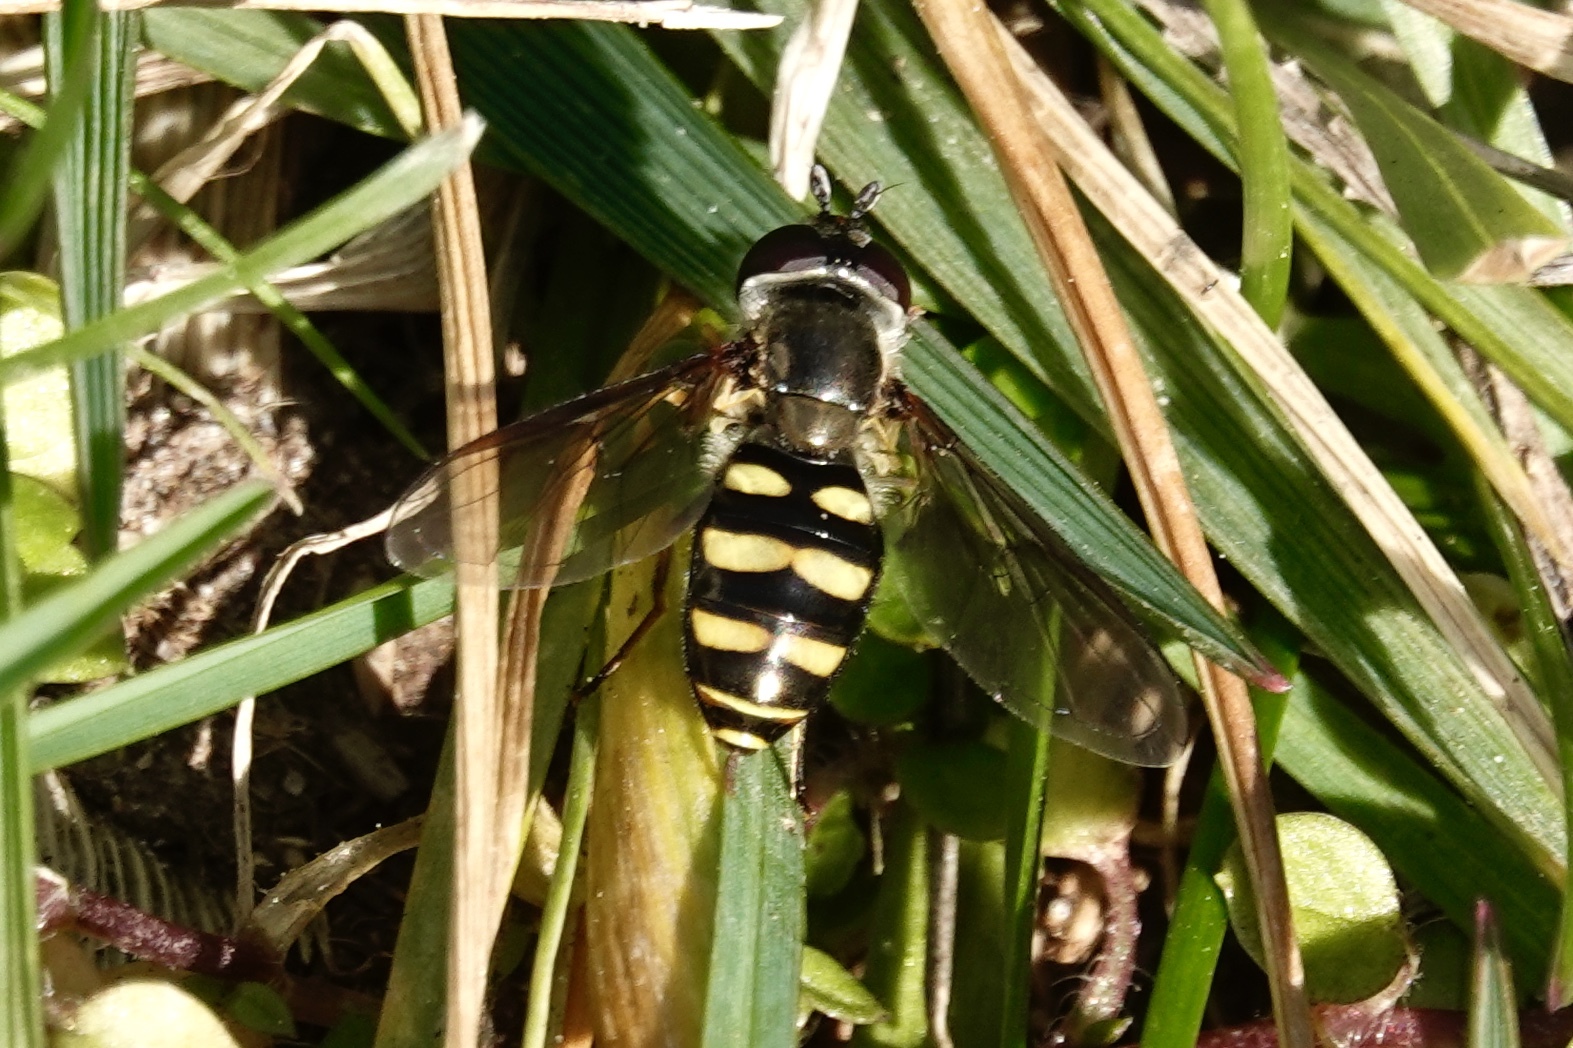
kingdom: Animalia
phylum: Arthropoda
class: Insecta
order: Diptera
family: Syrphidae
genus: Eupeodes
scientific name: Eupeodes
